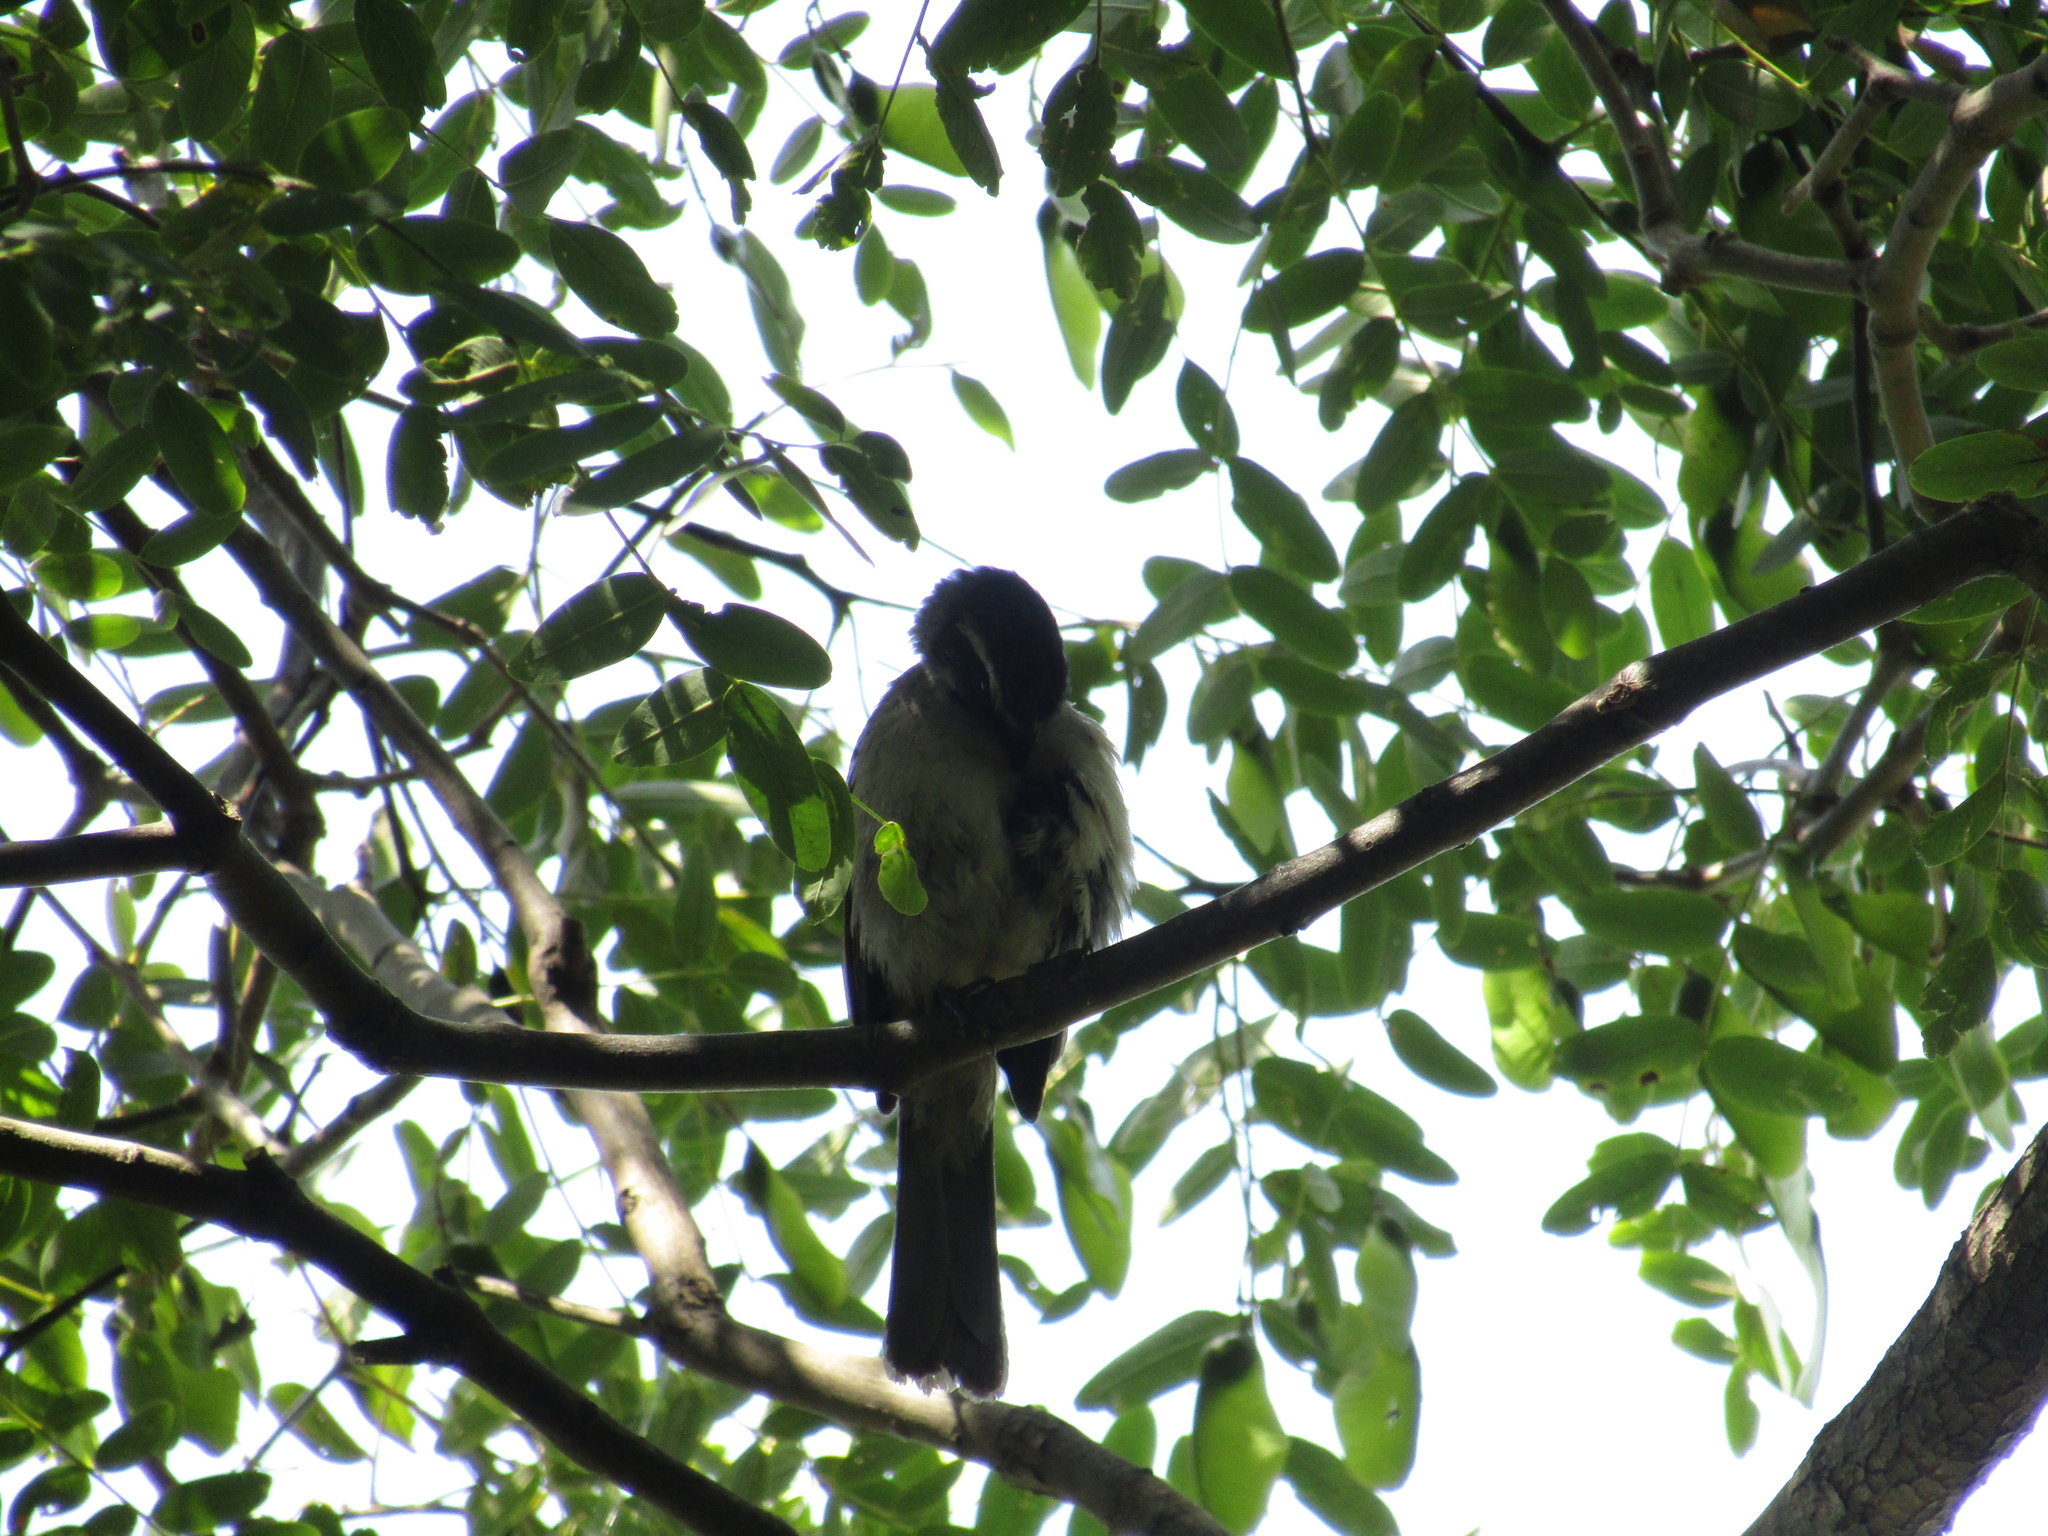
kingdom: Animalia
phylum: Chordata
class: Aves
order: Passeriformes
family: Thraupidae
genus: Saltator
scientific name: Saltator similis
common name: Green-winged saltator
